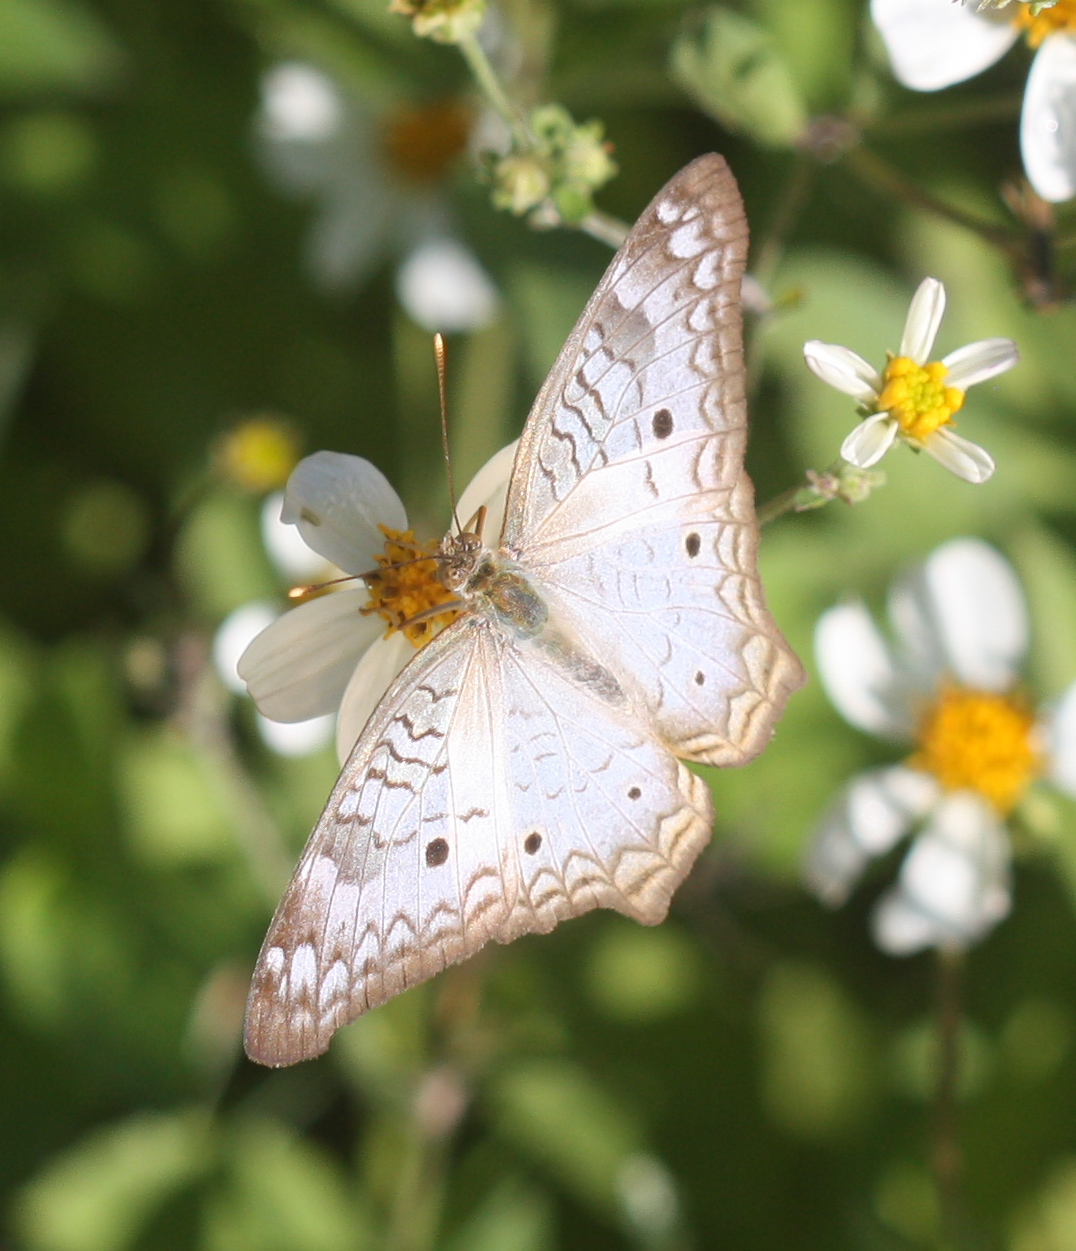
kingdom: Animalia
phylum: Arthropoda
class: Insecta
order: Lepidoptera
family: Nymphalidae
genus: Anartia
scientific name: Anartia jatrophae
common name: White peacock
